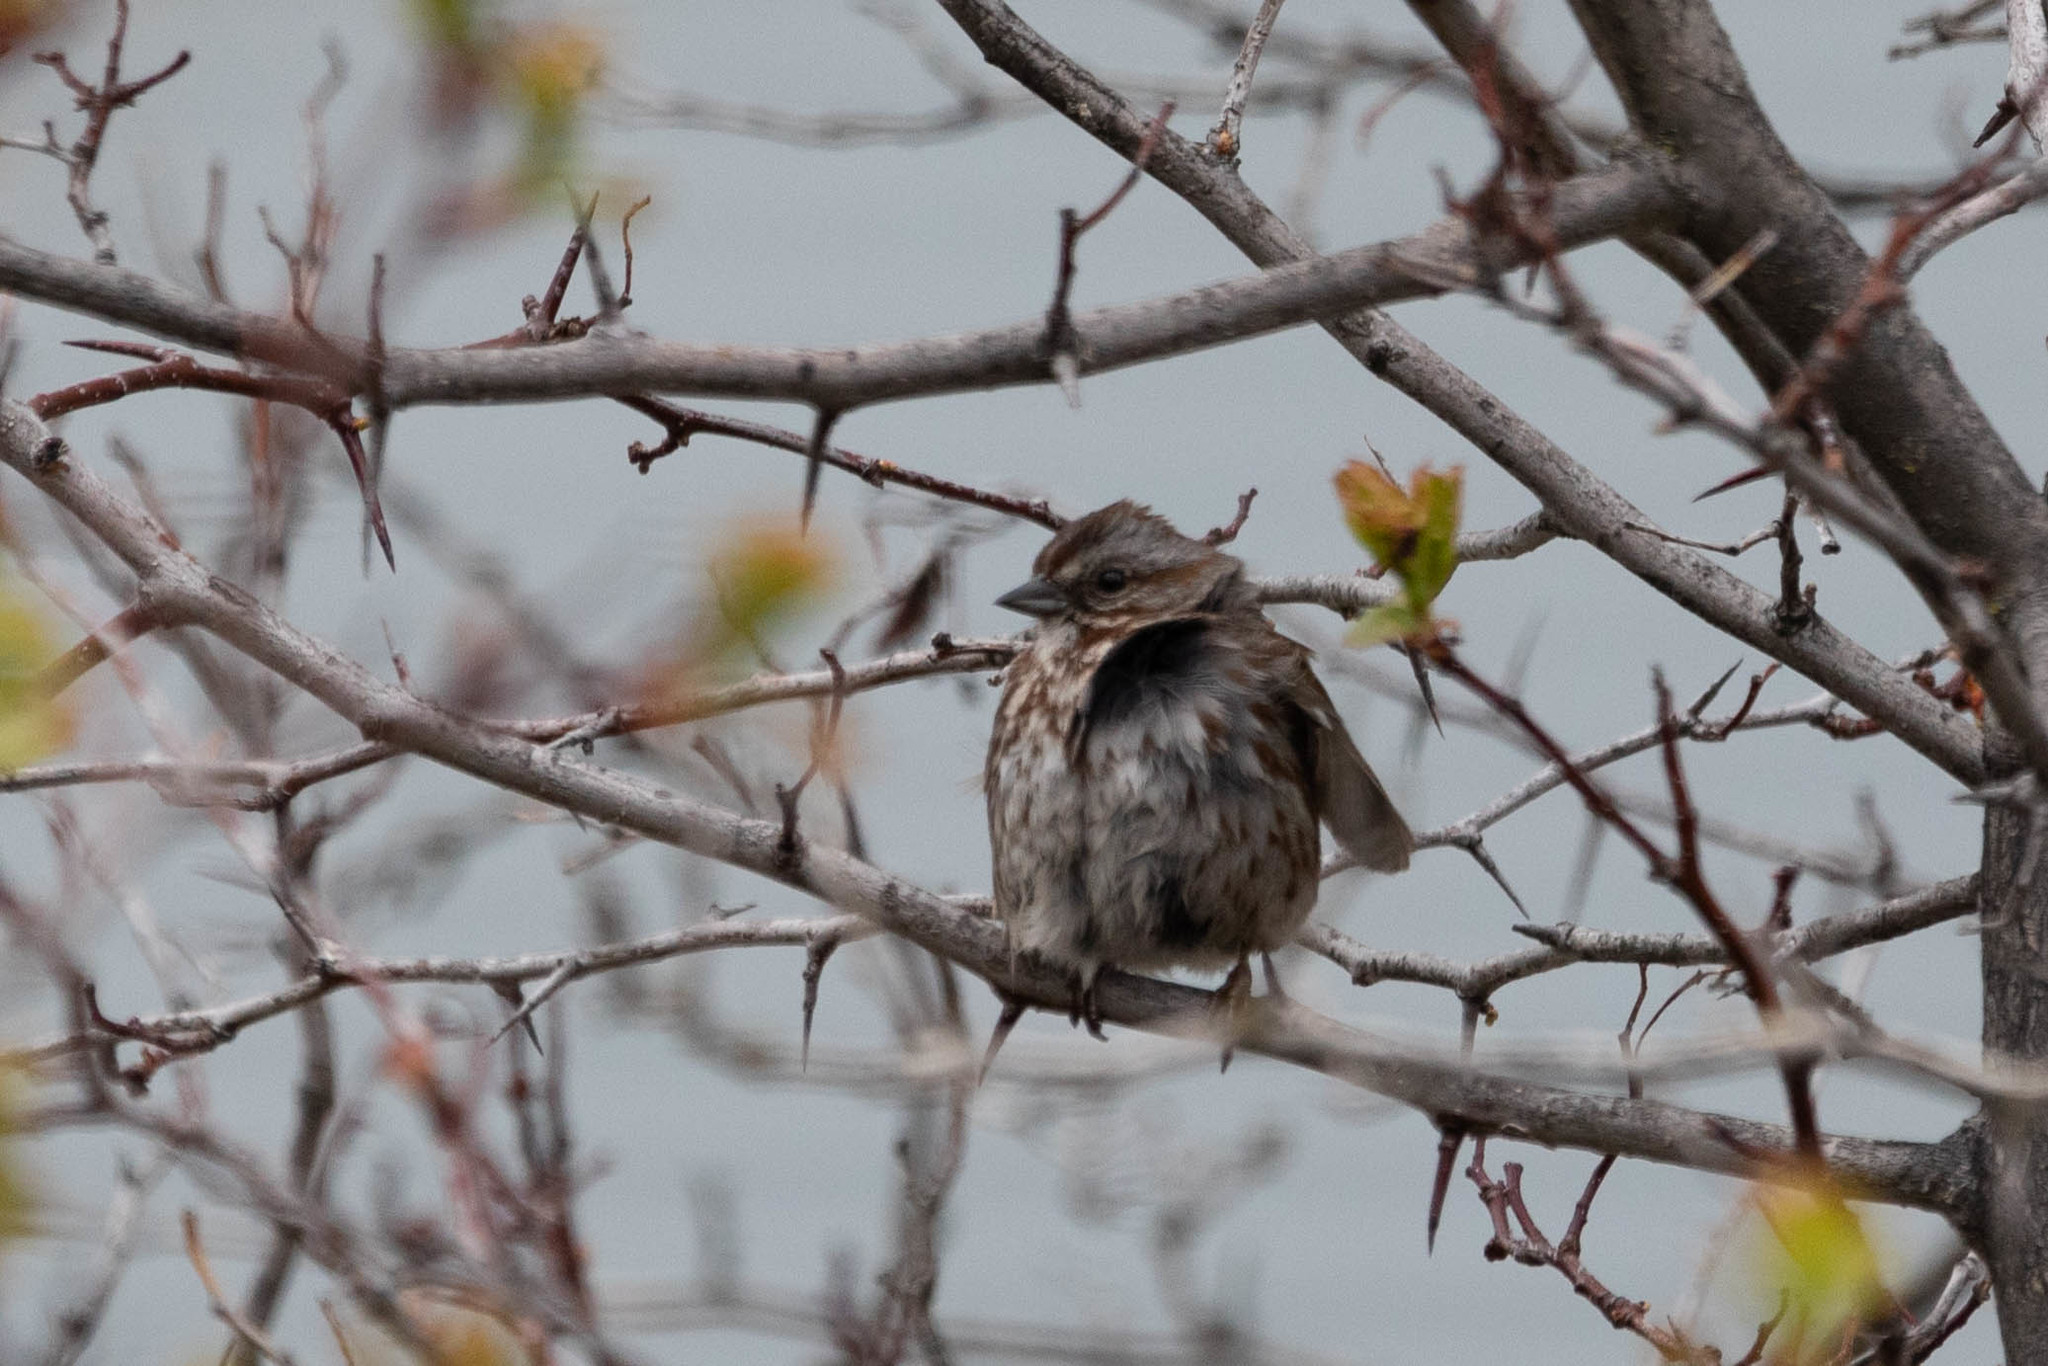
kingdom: Animalia
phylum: Chordata
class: Aves
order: Passeriformes
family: Passerellidae
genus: Melospiza
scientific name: Melospiza melodia
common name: Song sparrow
